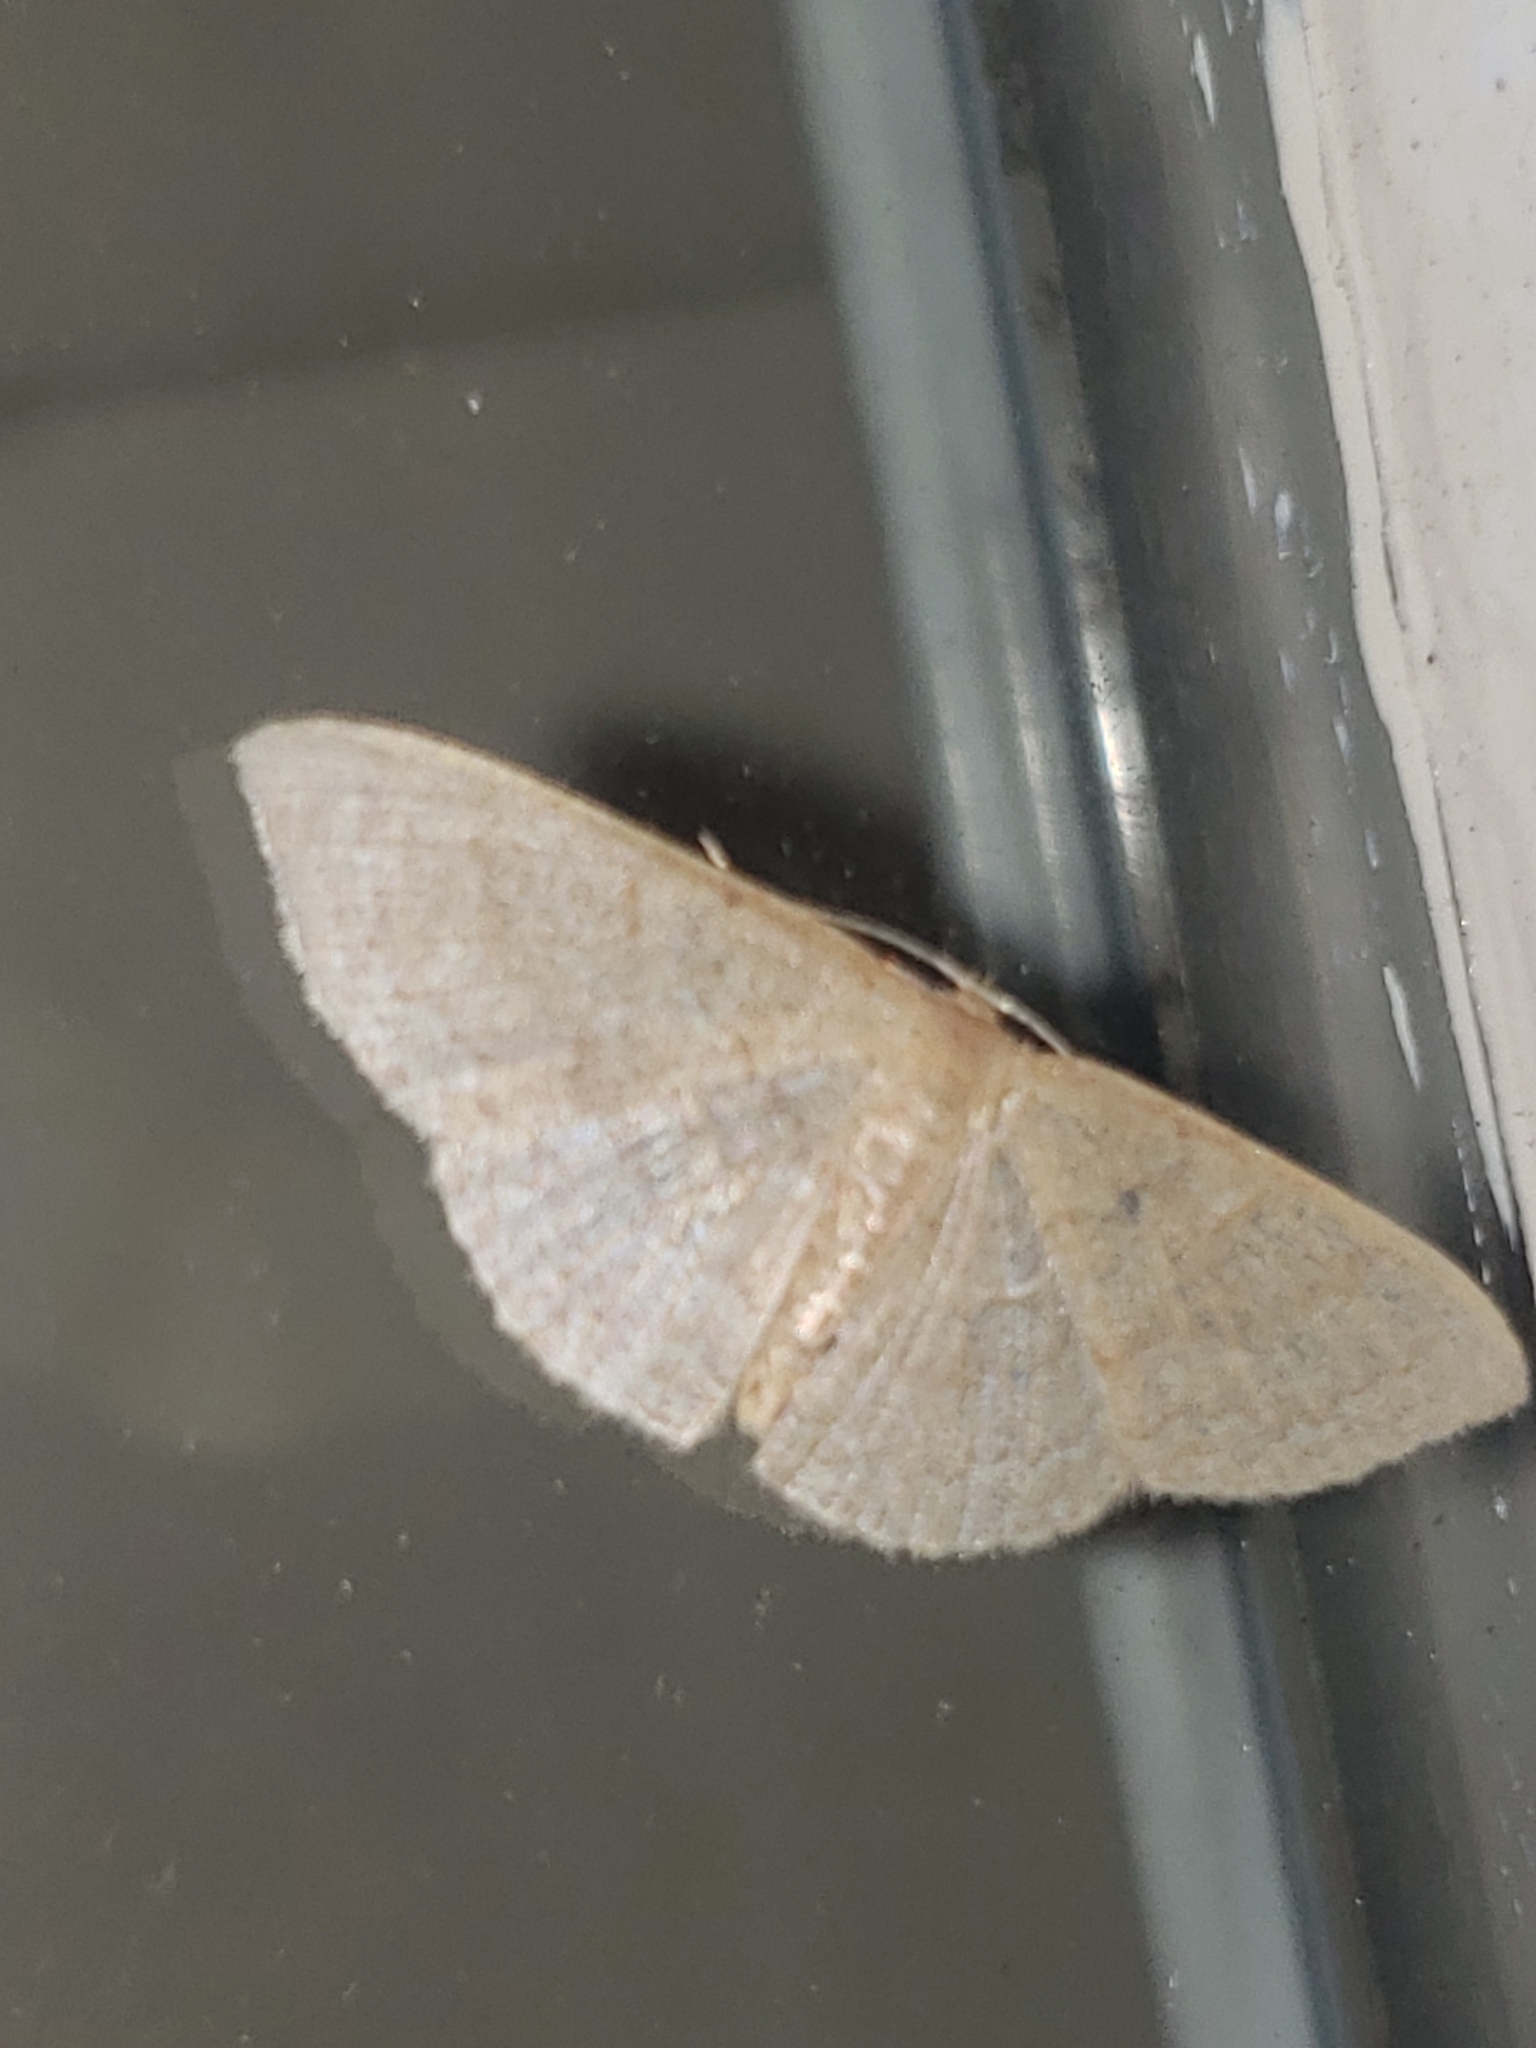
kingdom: Animalia
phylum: Arthropoda
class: Insecta
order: Lepidoptera
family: Geometridae
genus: Pleuroprucha
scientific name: Pleuroprucha insulsaria
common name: Common tan wave
